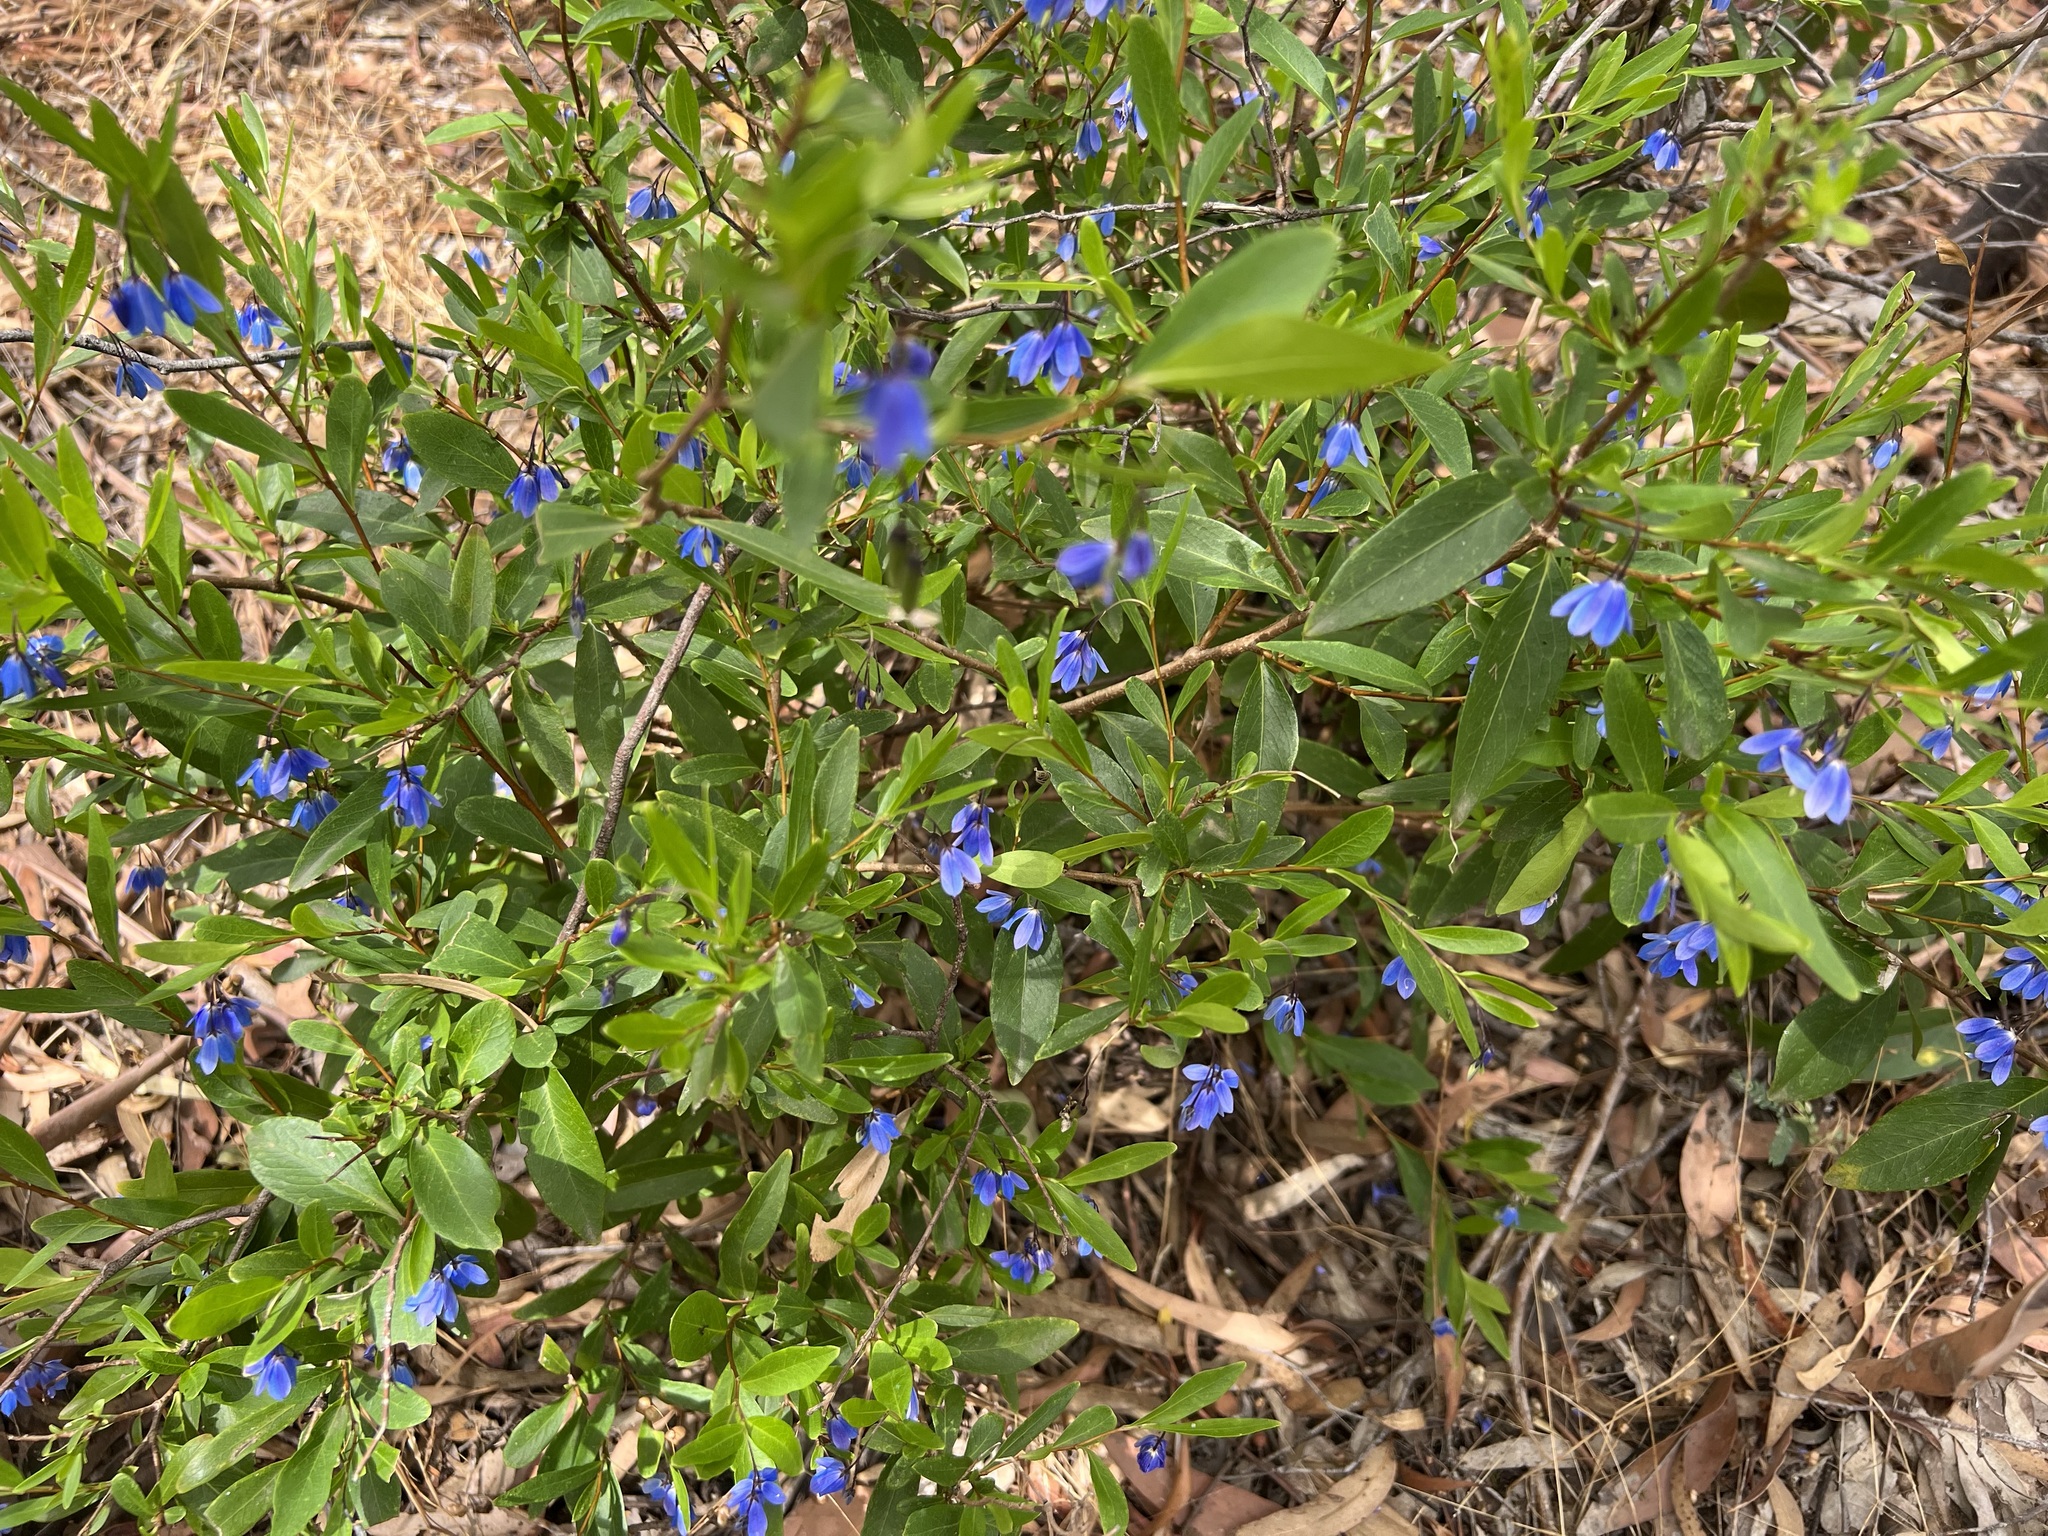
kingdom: Plantae
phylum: Tracheophyta
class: Magnoliopsida
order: Apiales
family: Pittosporaceae
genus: Billardiera
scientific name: Billardiera fusiformis
